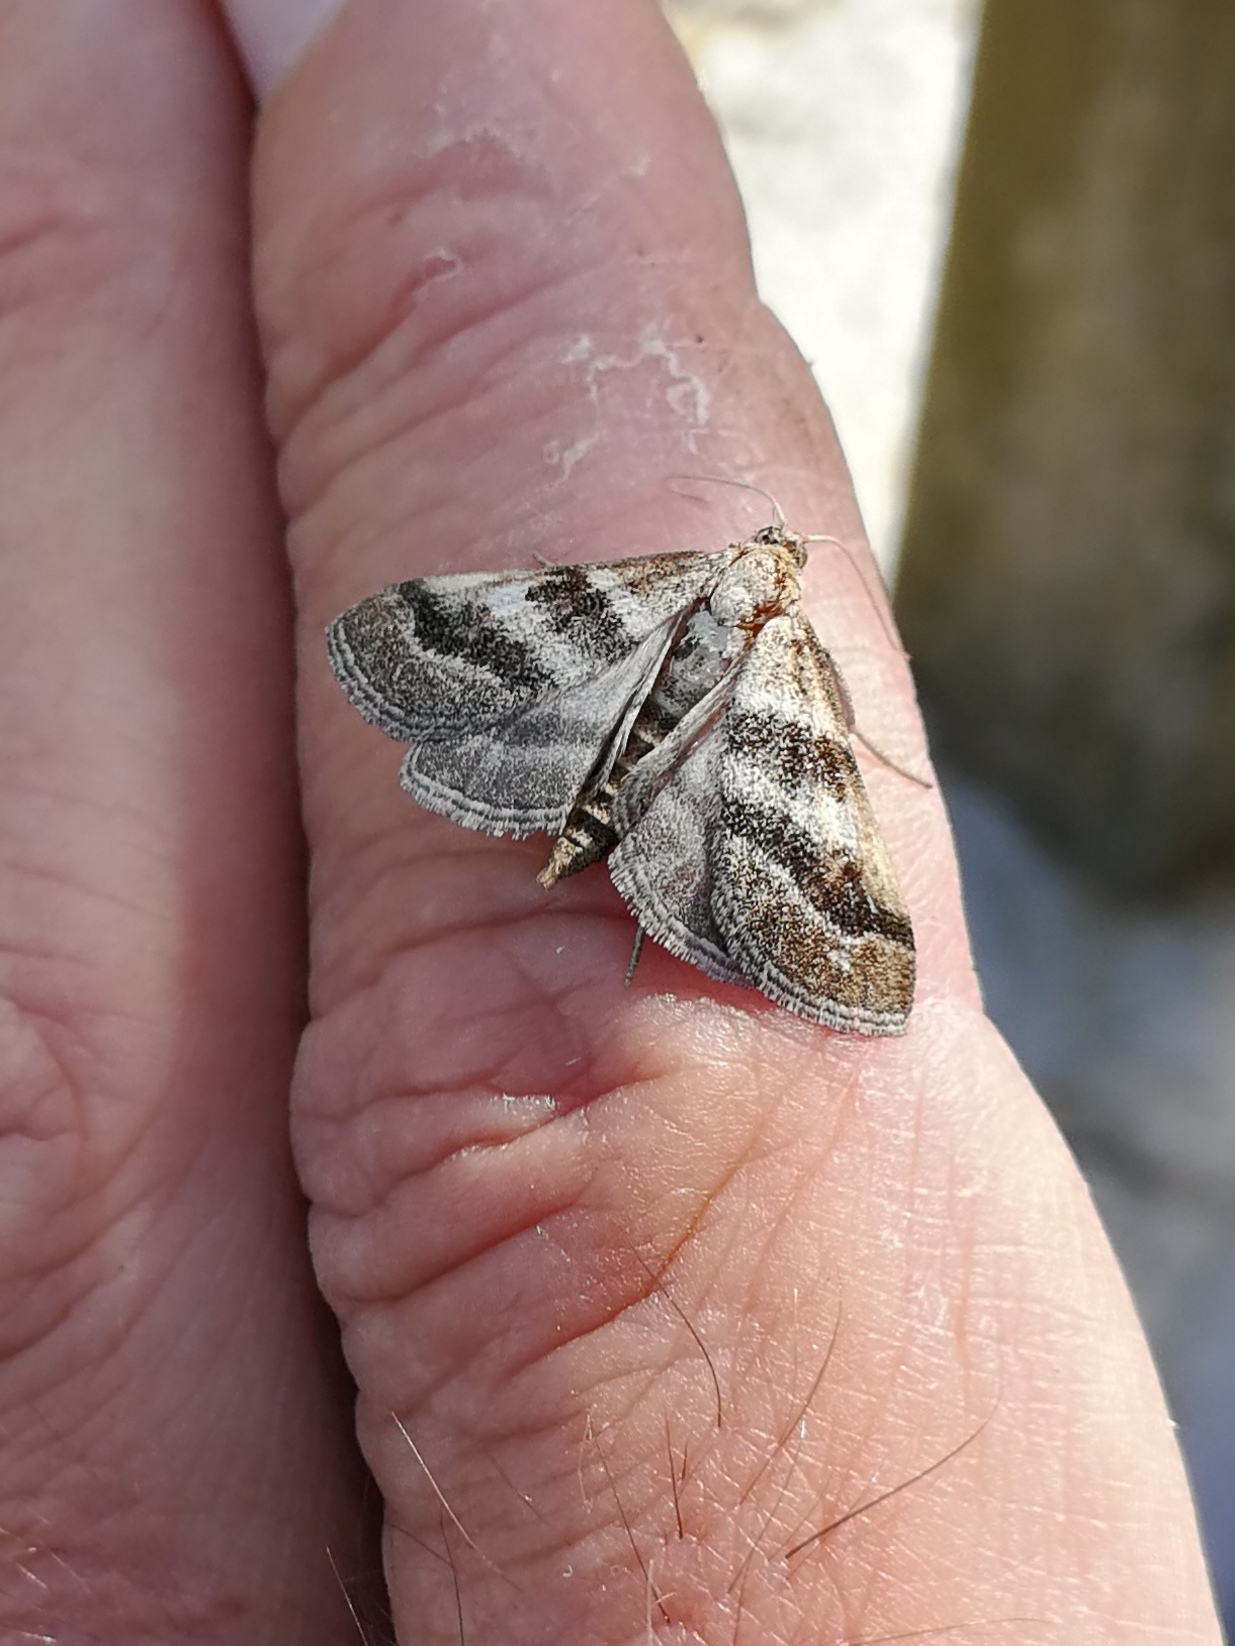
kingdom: Animalia
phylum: Arthropoda
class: Insecta
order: Lepidoptera
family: Crambidae
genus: Metasia
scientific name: Metasia suppandalis
